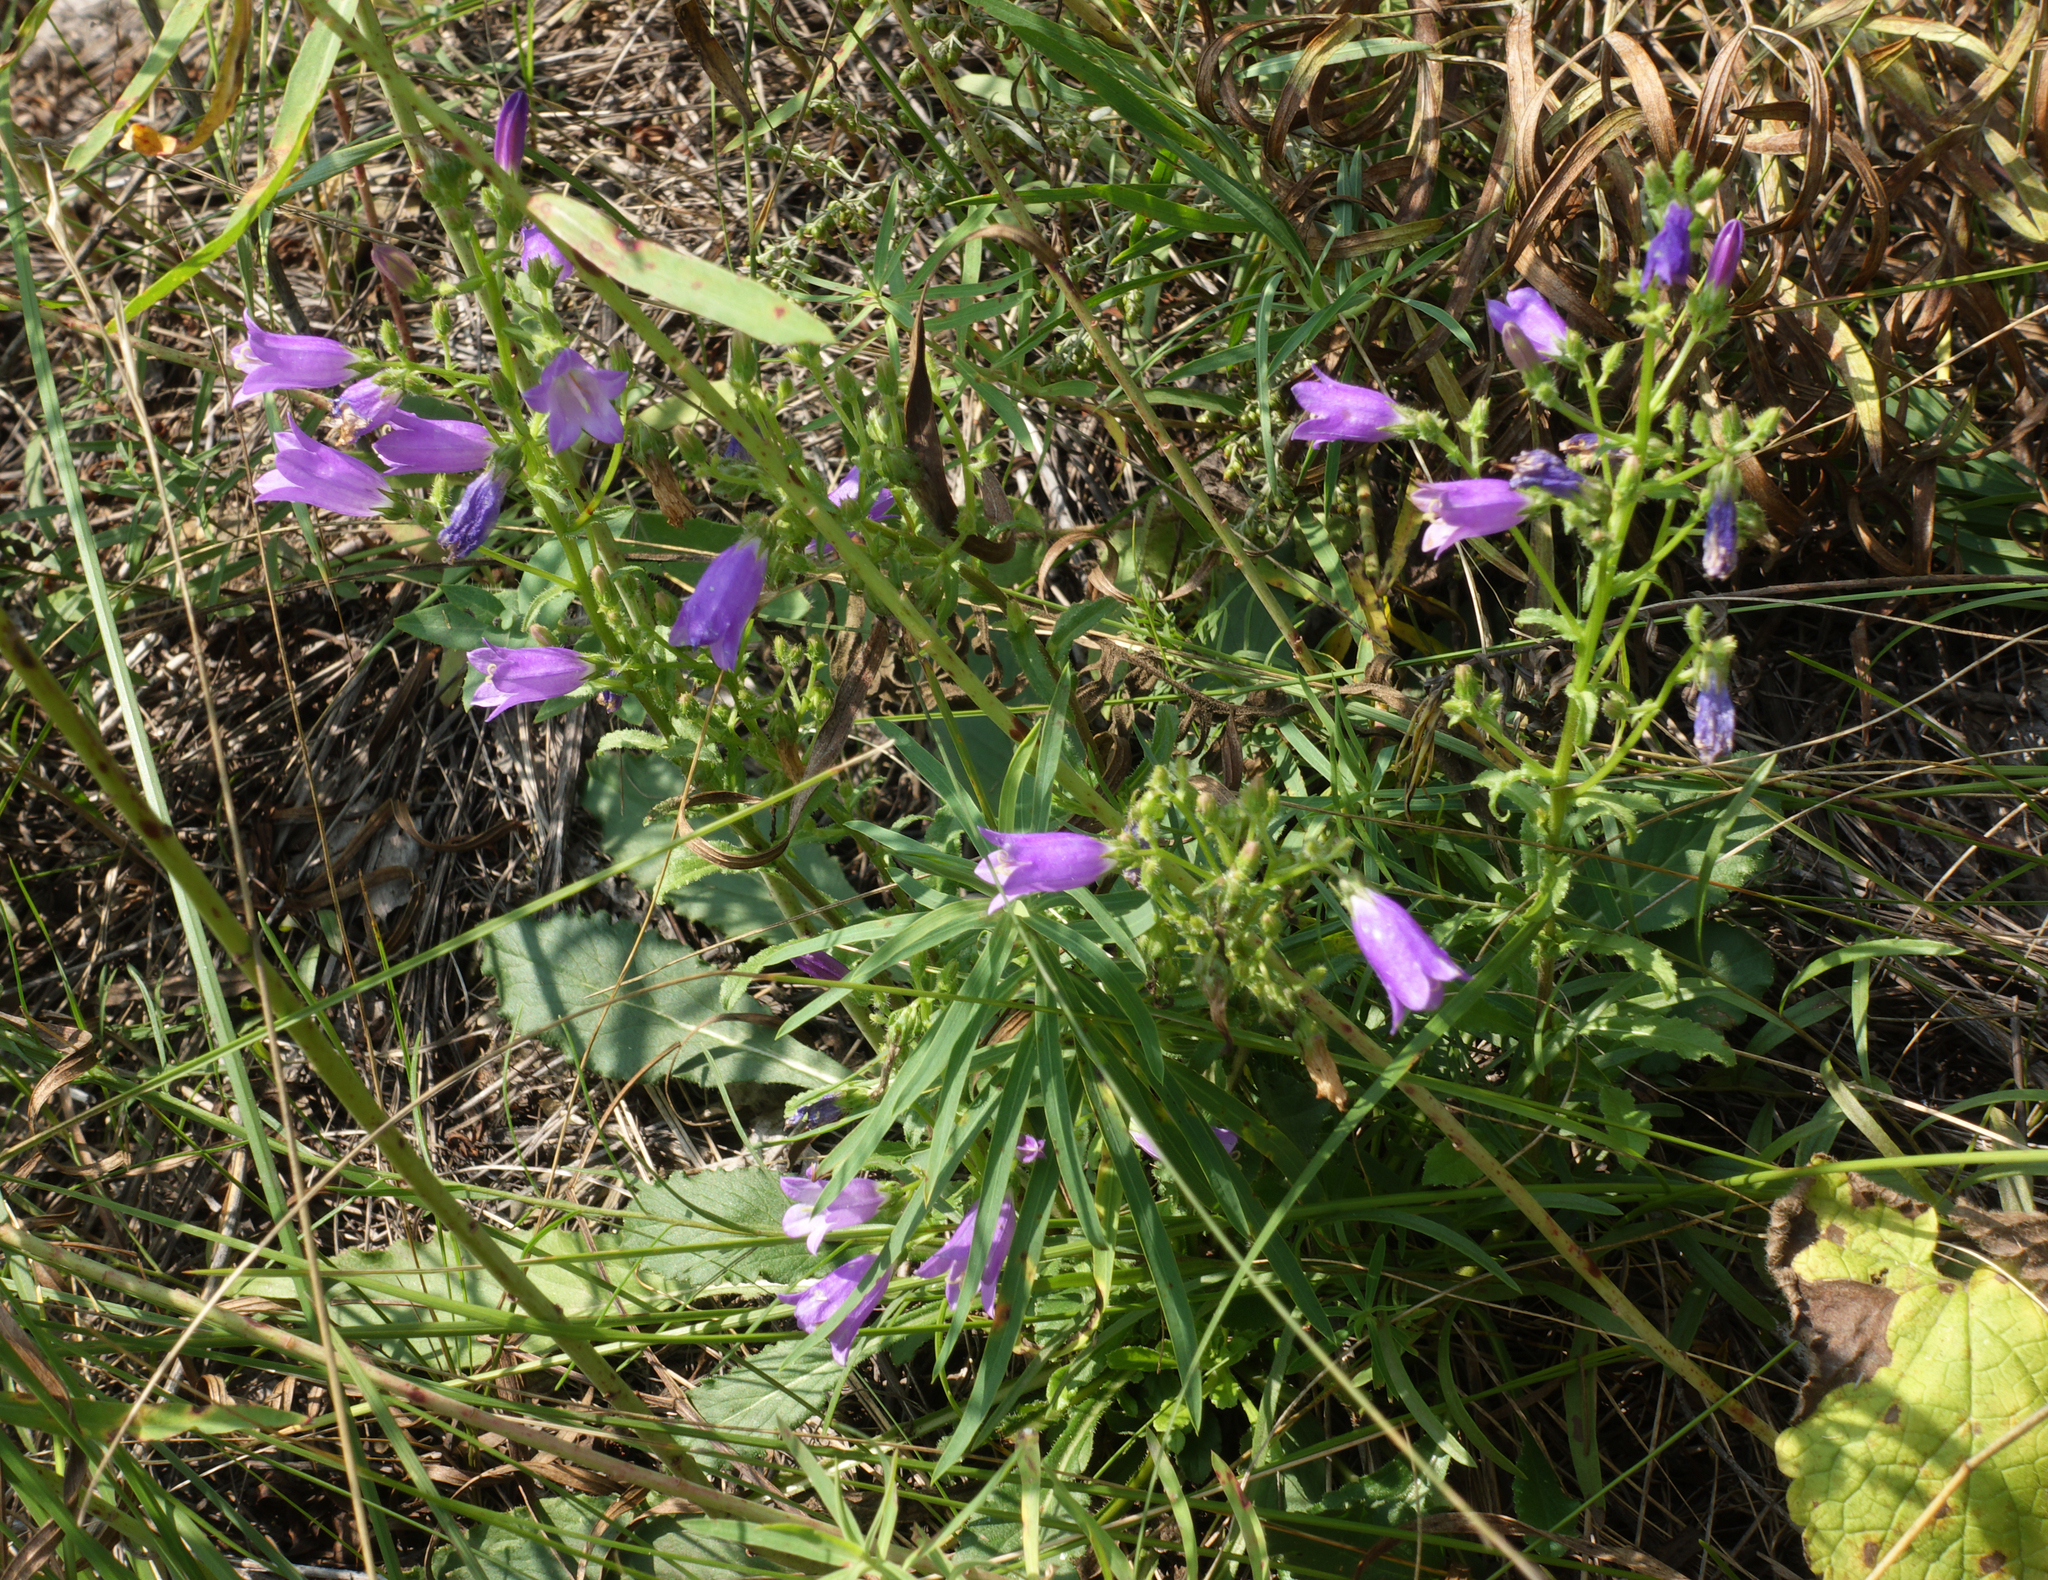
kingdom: Plantae
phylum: Tracheophyta
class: Magnoliopsida
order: Asterales
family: Campanulaceae
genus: Campanula
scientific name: Campanula sibirica
